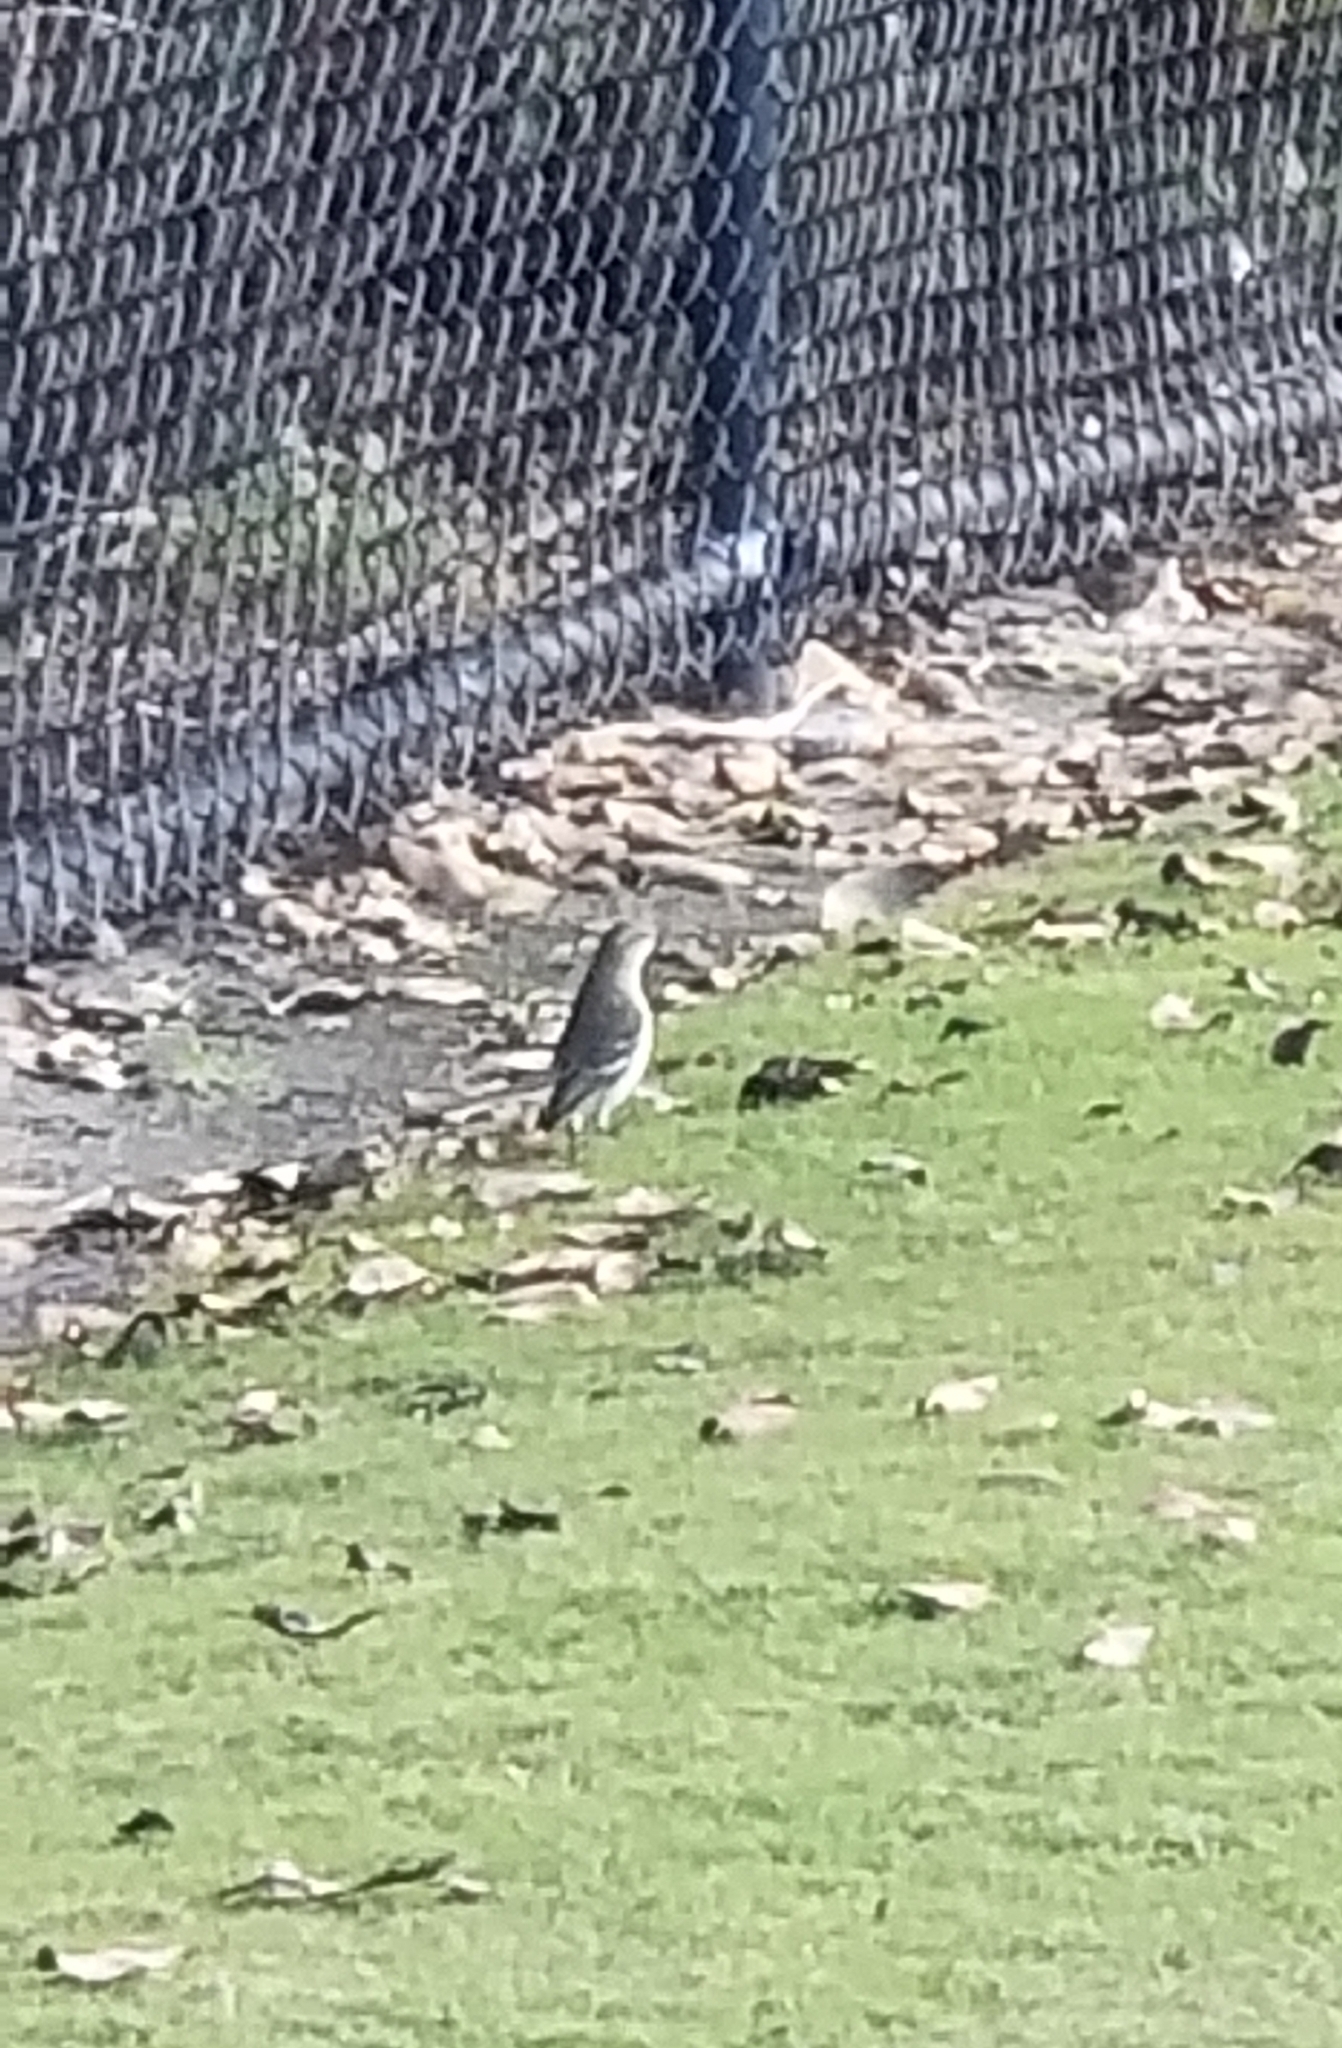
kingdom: Animalia
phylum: Chordata
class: Aves
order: Passeriformes
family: Mimidae
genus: Mimus
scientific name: Mimus polyglottos
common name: Northern mockingbird
